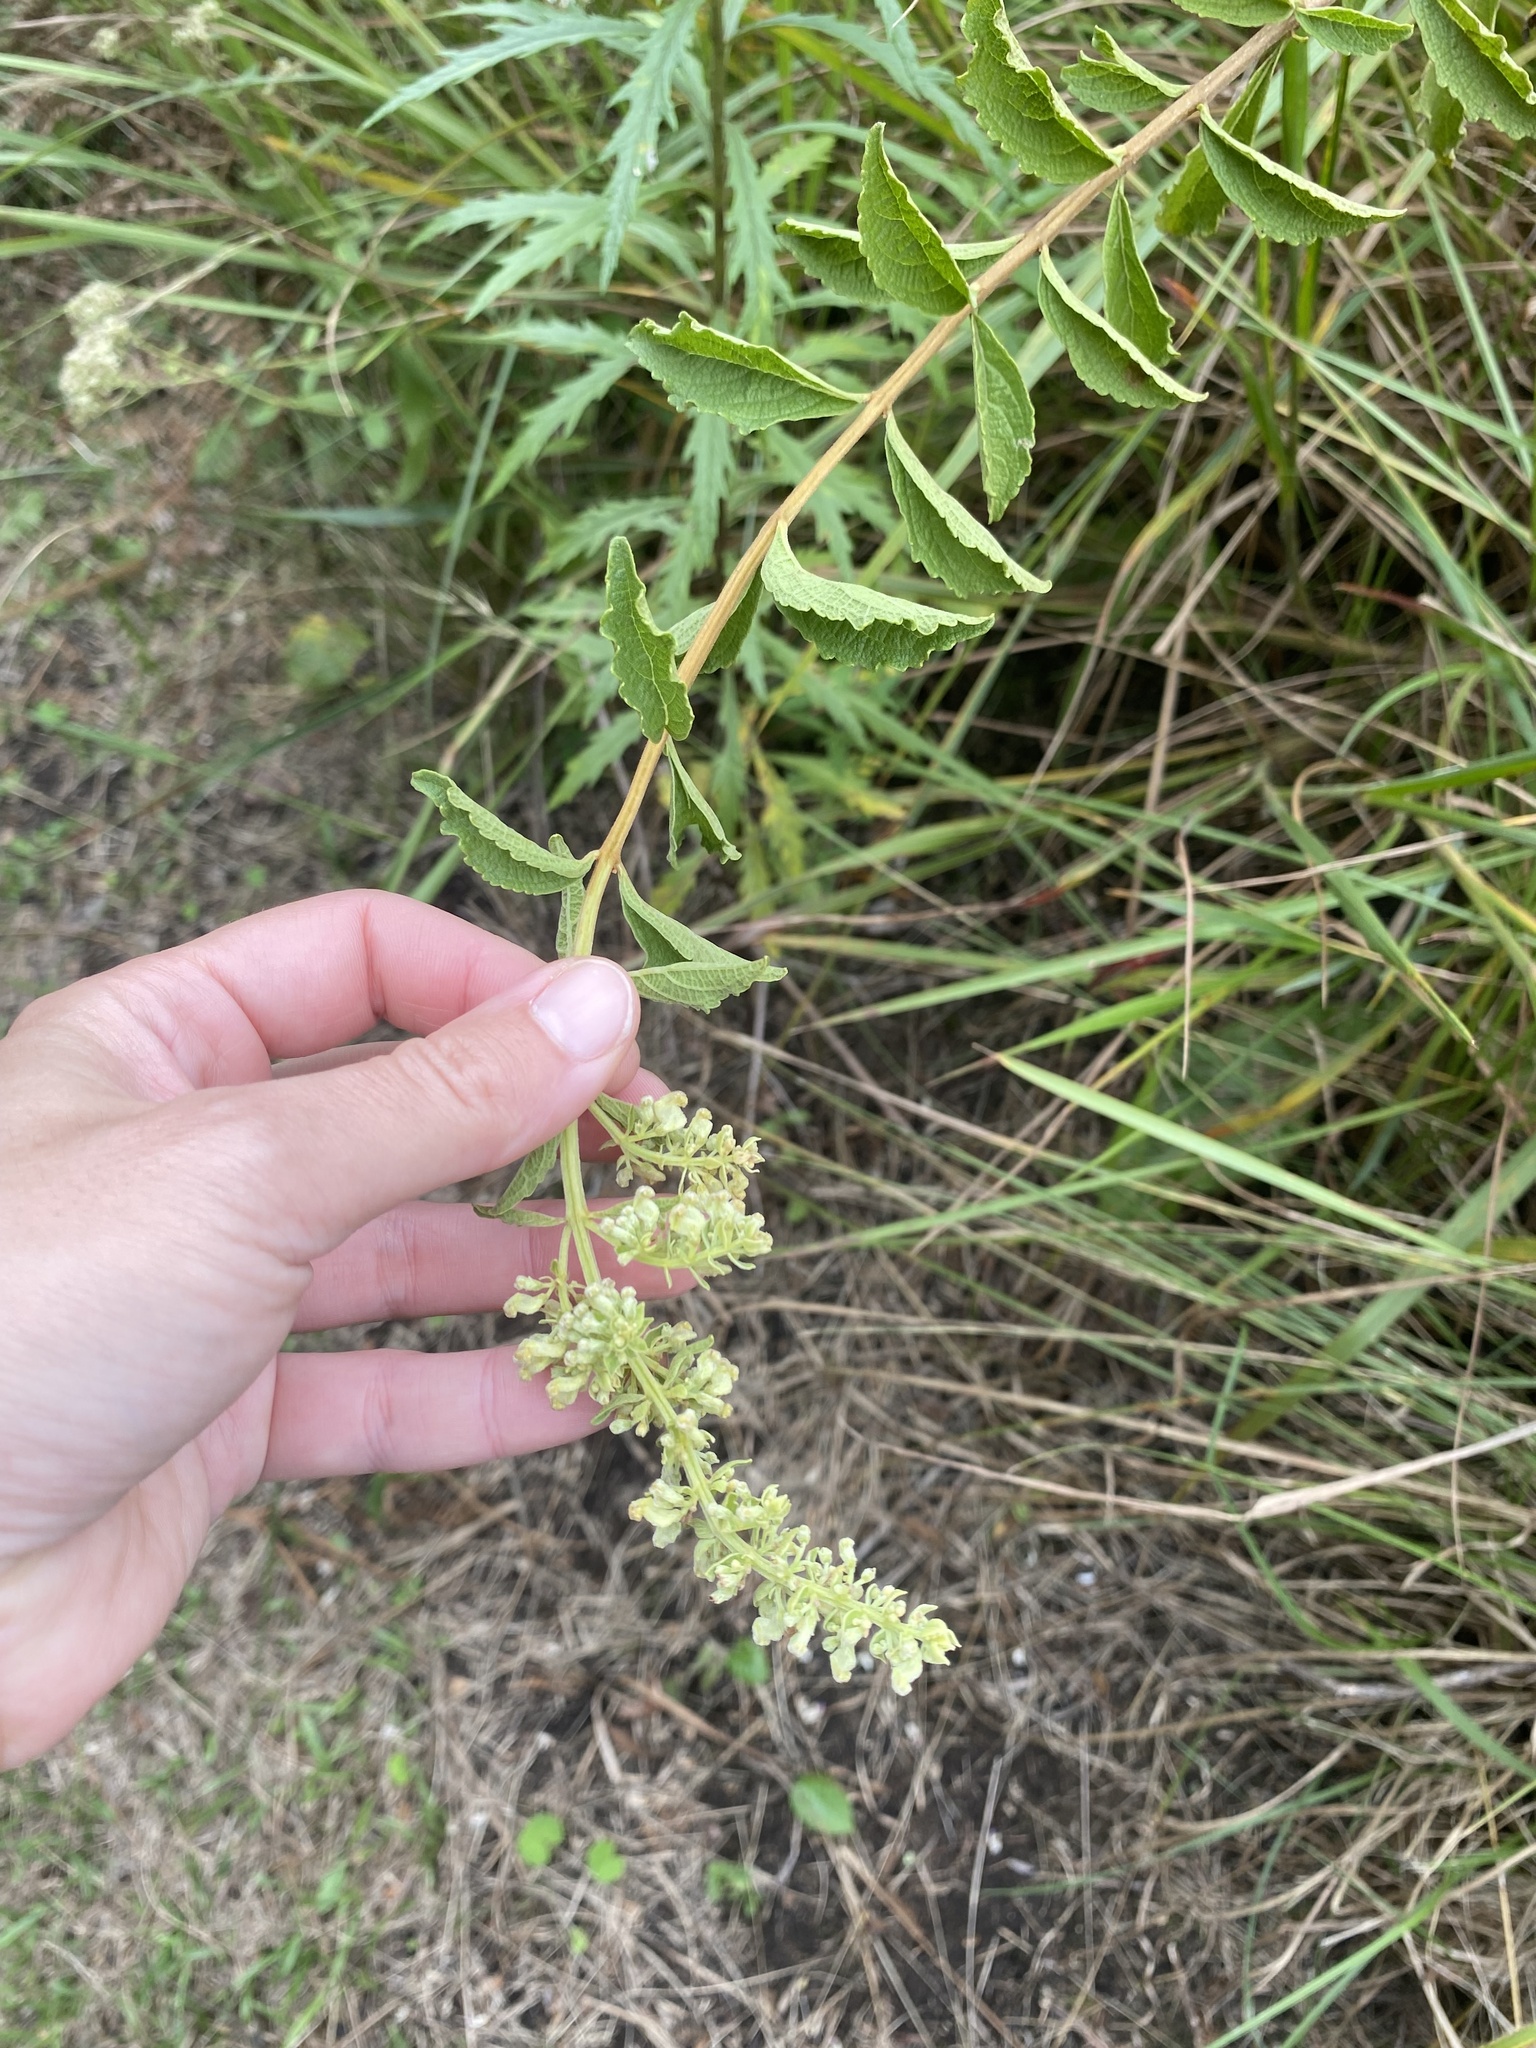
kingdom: Plantae
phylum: Tracheophyta
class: Magnoliopsida
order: Lamiales
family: Lamiaceae
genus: Coleus
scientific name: Coleus calycinus
